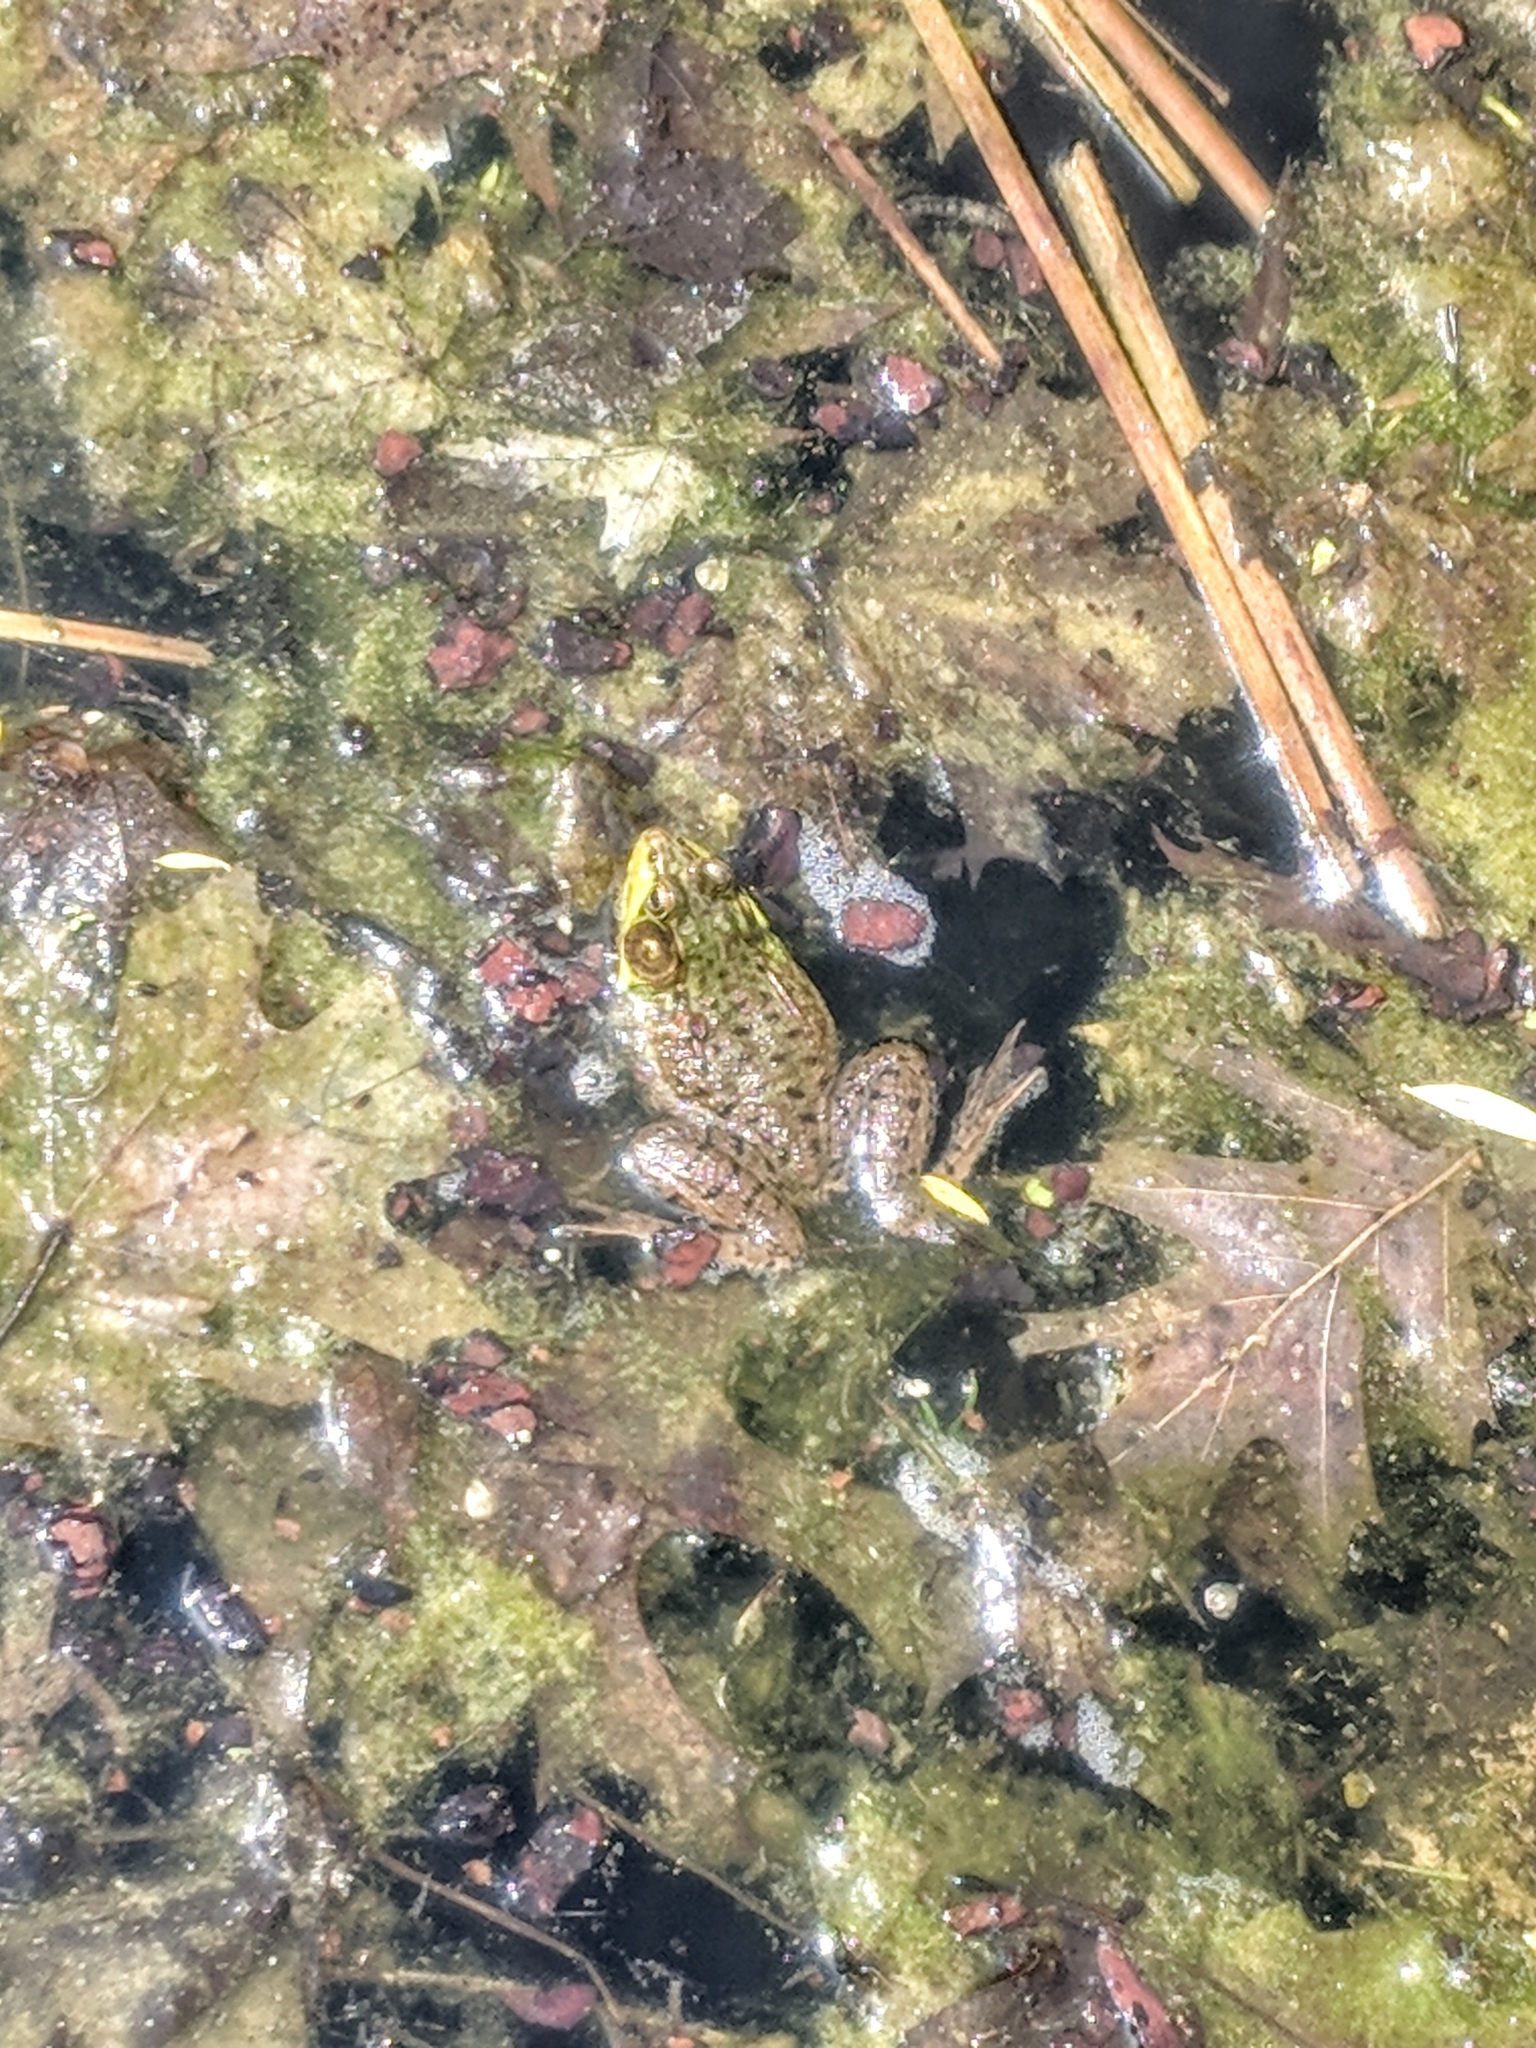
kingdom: Animalia
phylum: Chordata
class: Amphibia
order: Anura
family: Ranidae
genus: Lithobates
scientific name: Lithobates clamitans
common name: Green frog
